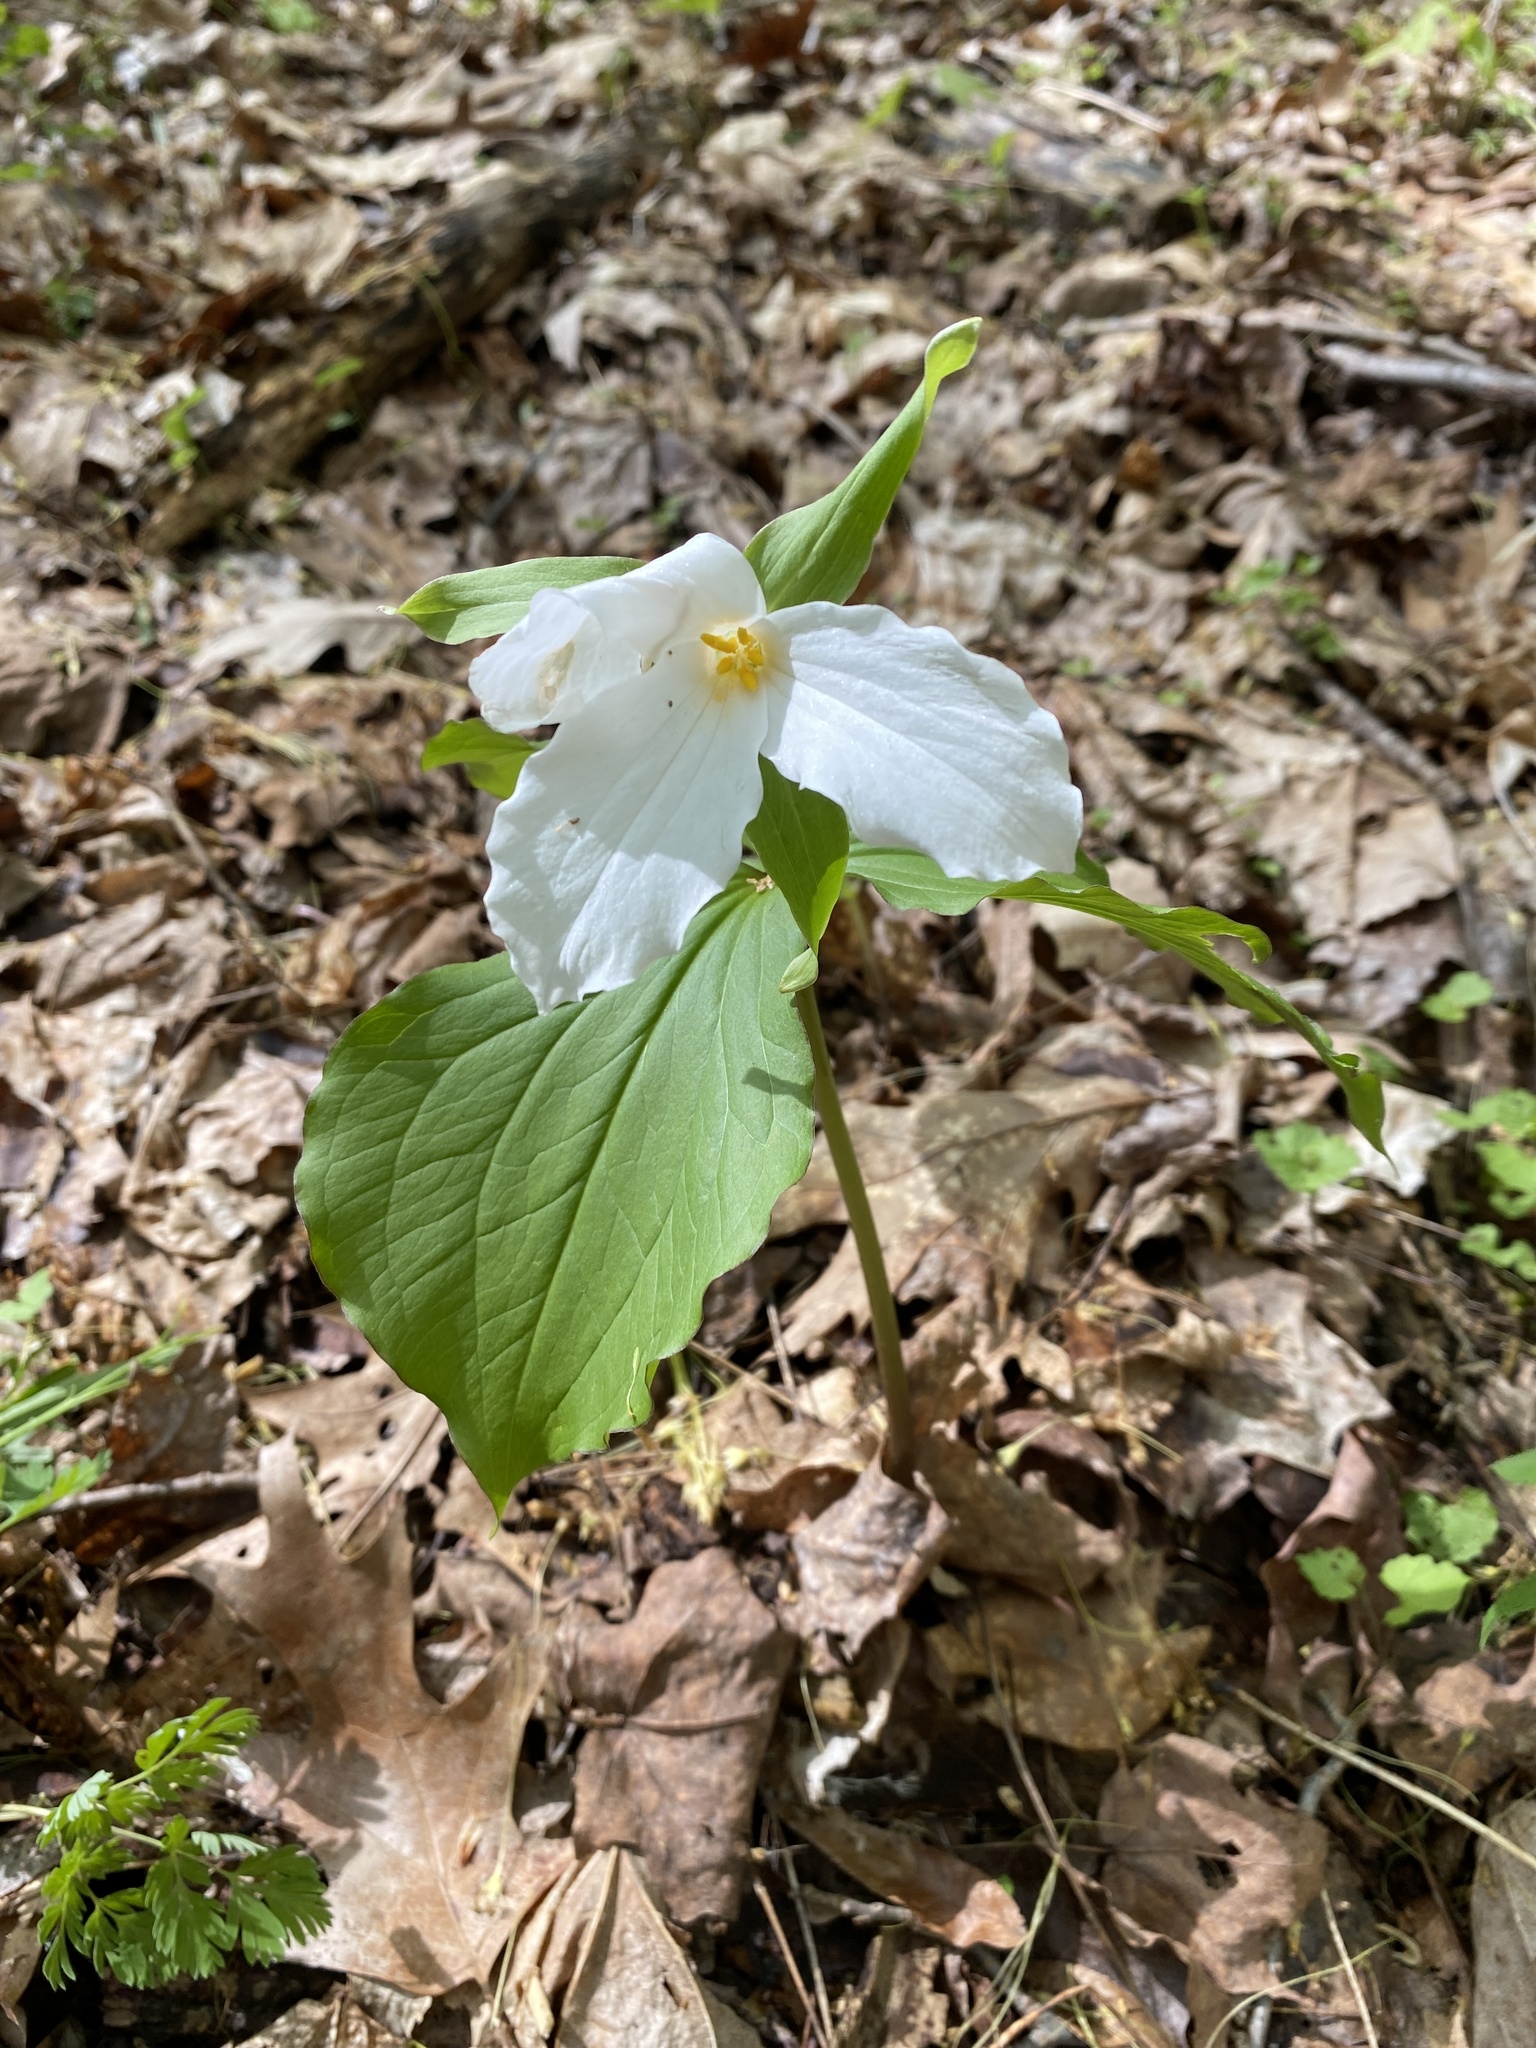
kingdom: Plantae
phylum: Tracheophyta
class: Liliopsida
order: Liliales
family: Melanthiaceae
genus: Trillium
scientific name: Trillium grandiflorum
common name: Great white trillium
